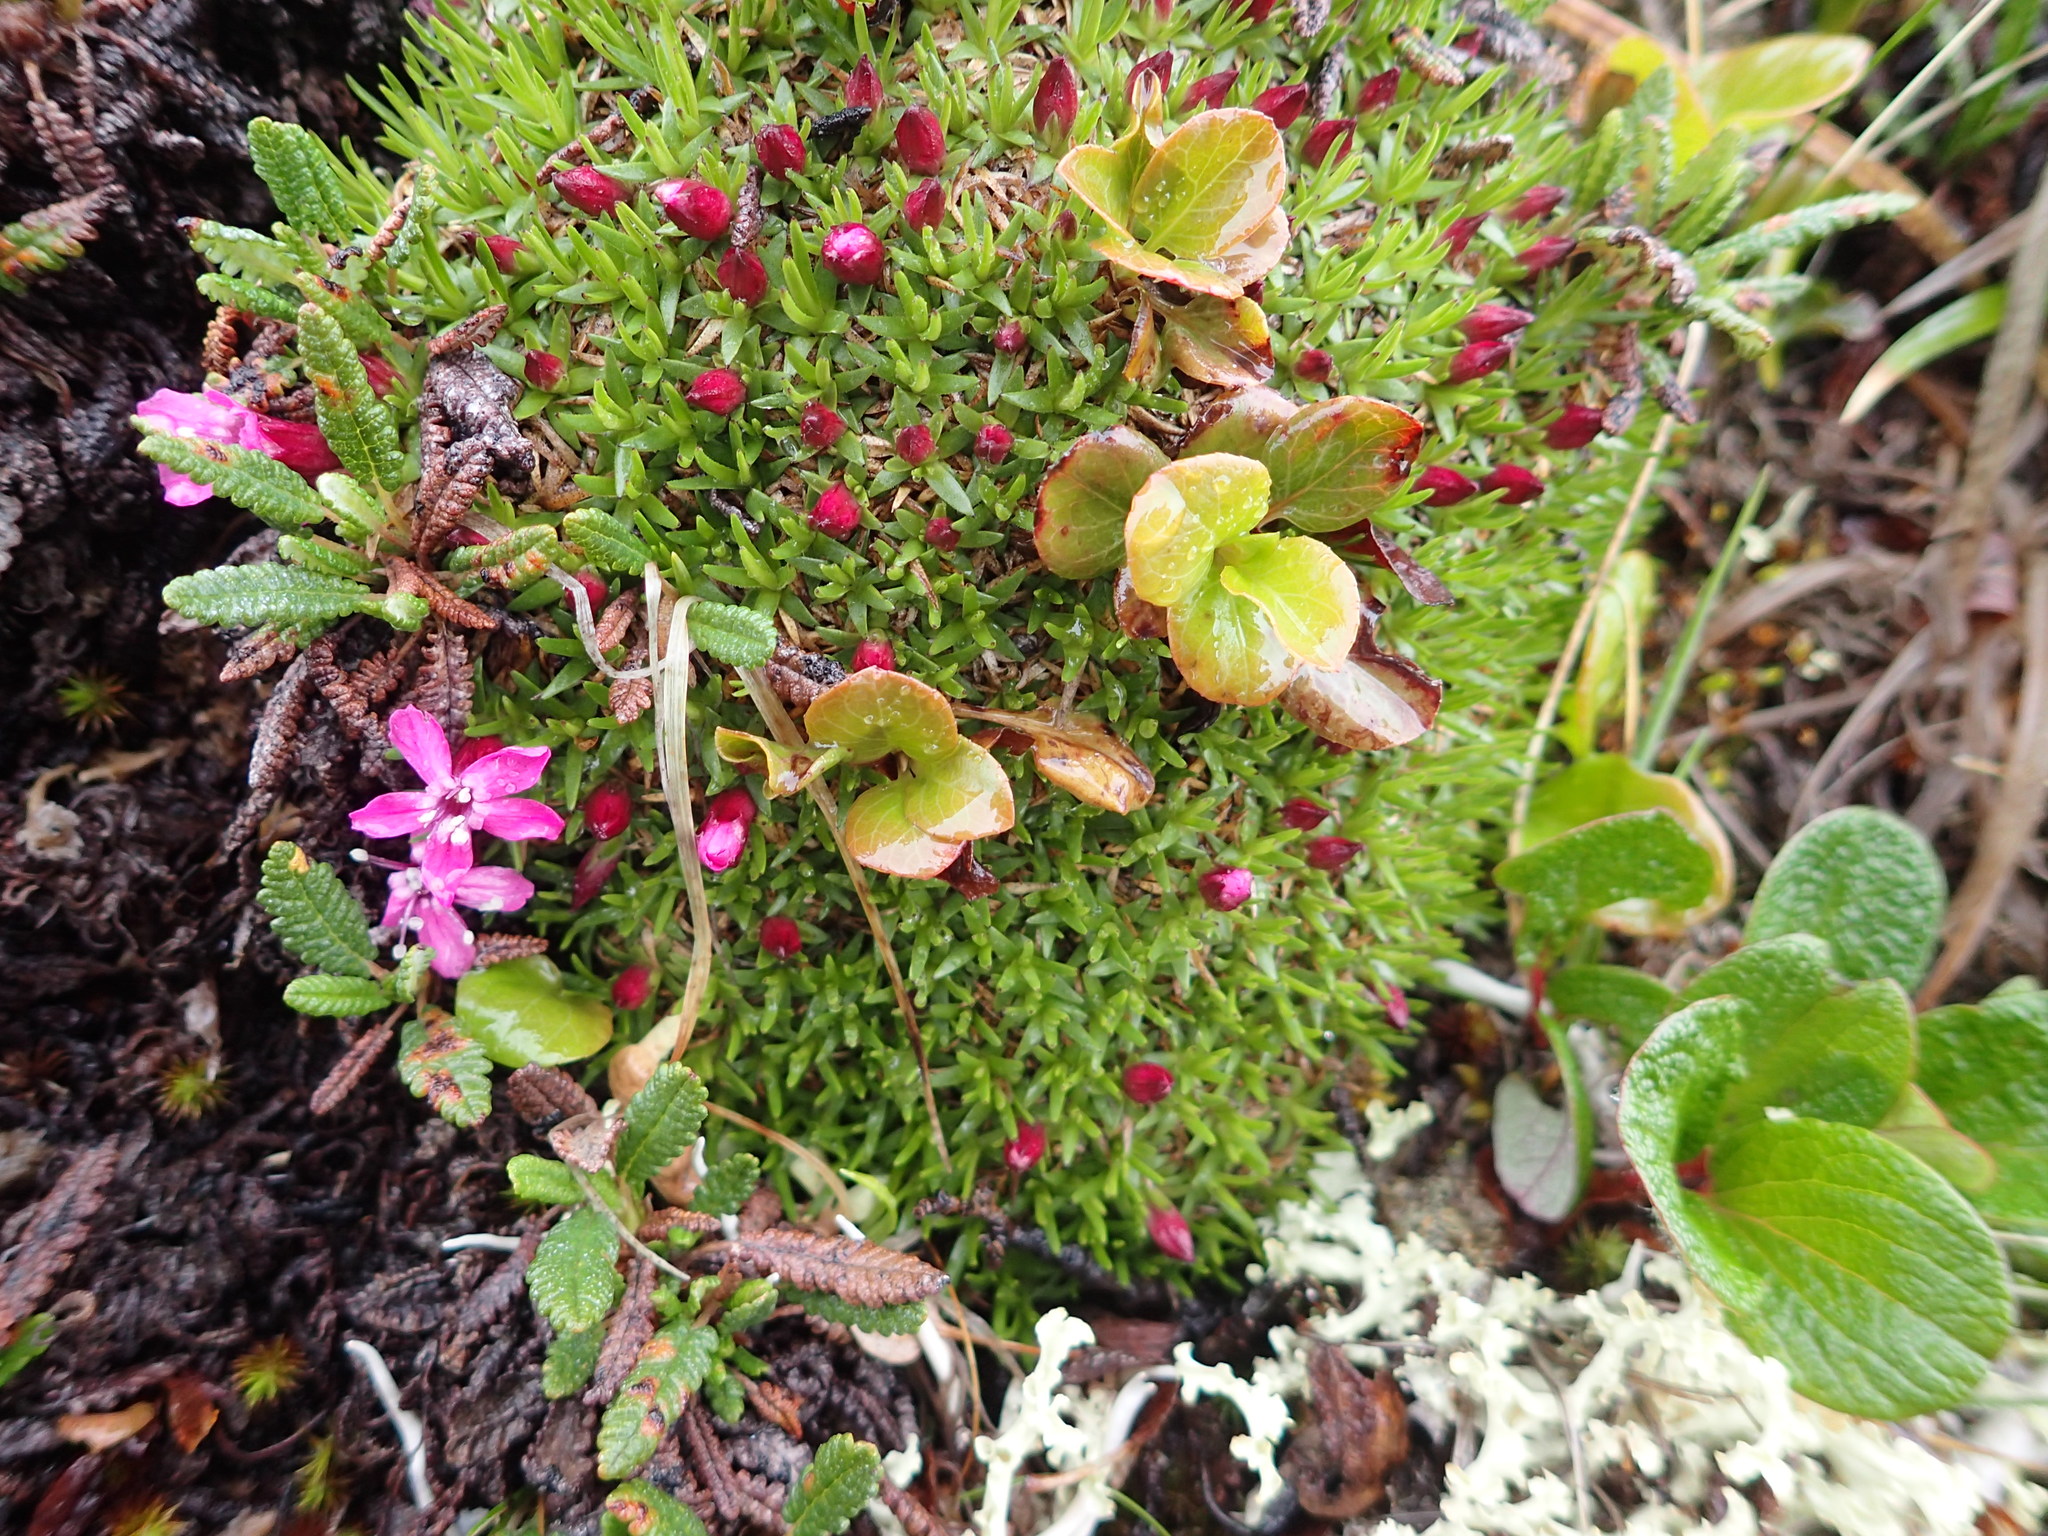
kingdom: Plantae
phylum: Tracheophyta
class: Magnoliopsida
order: Caryophyllales
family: Caryophyllaceae
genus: Silene
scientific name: Silene acaulis
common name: Moss campion
